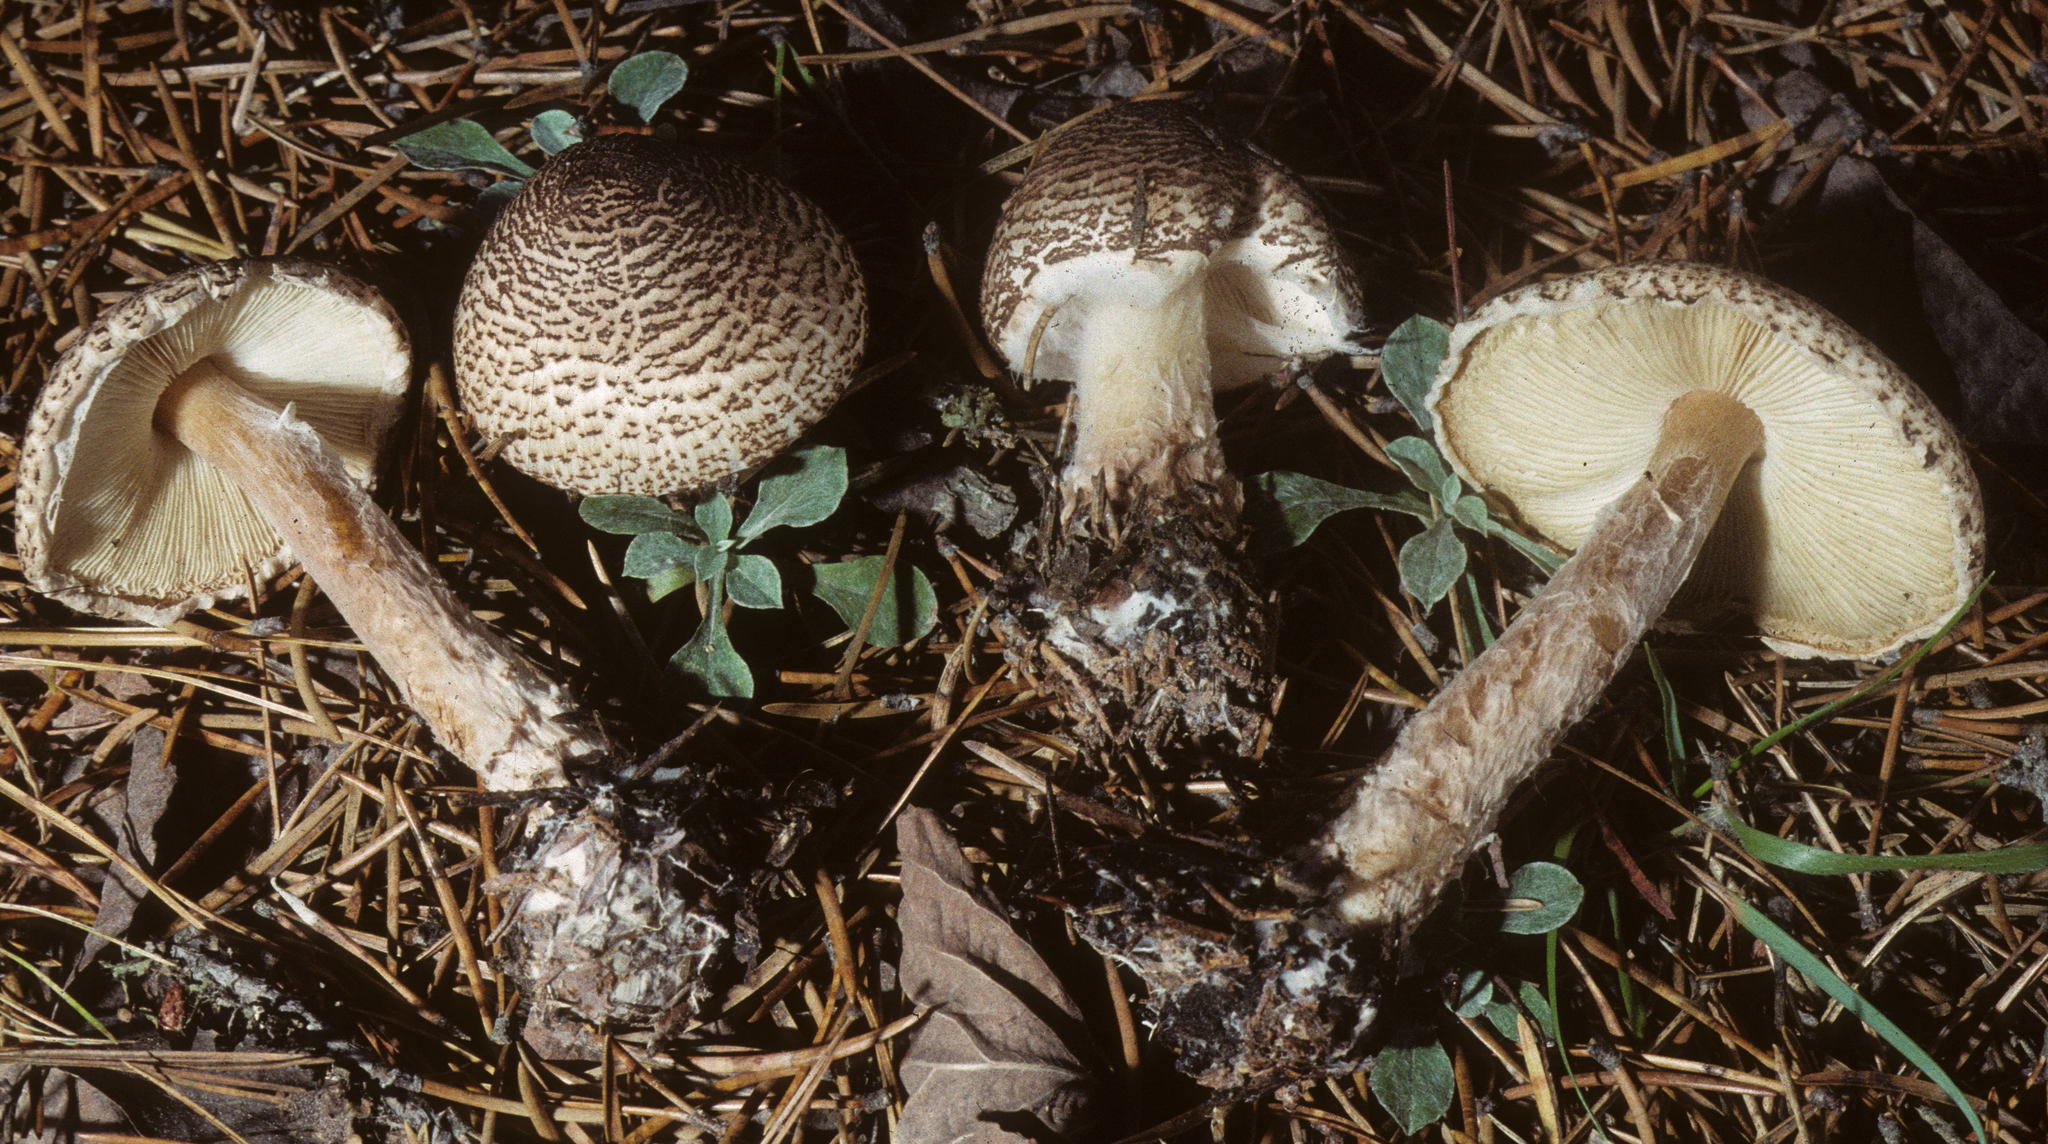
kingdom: Fungi
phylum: Basidiomycota
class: Agaricomycetes
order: Agaricales
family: Agaricaceae
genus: Lepiota
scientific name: Lepiota cortinarius
